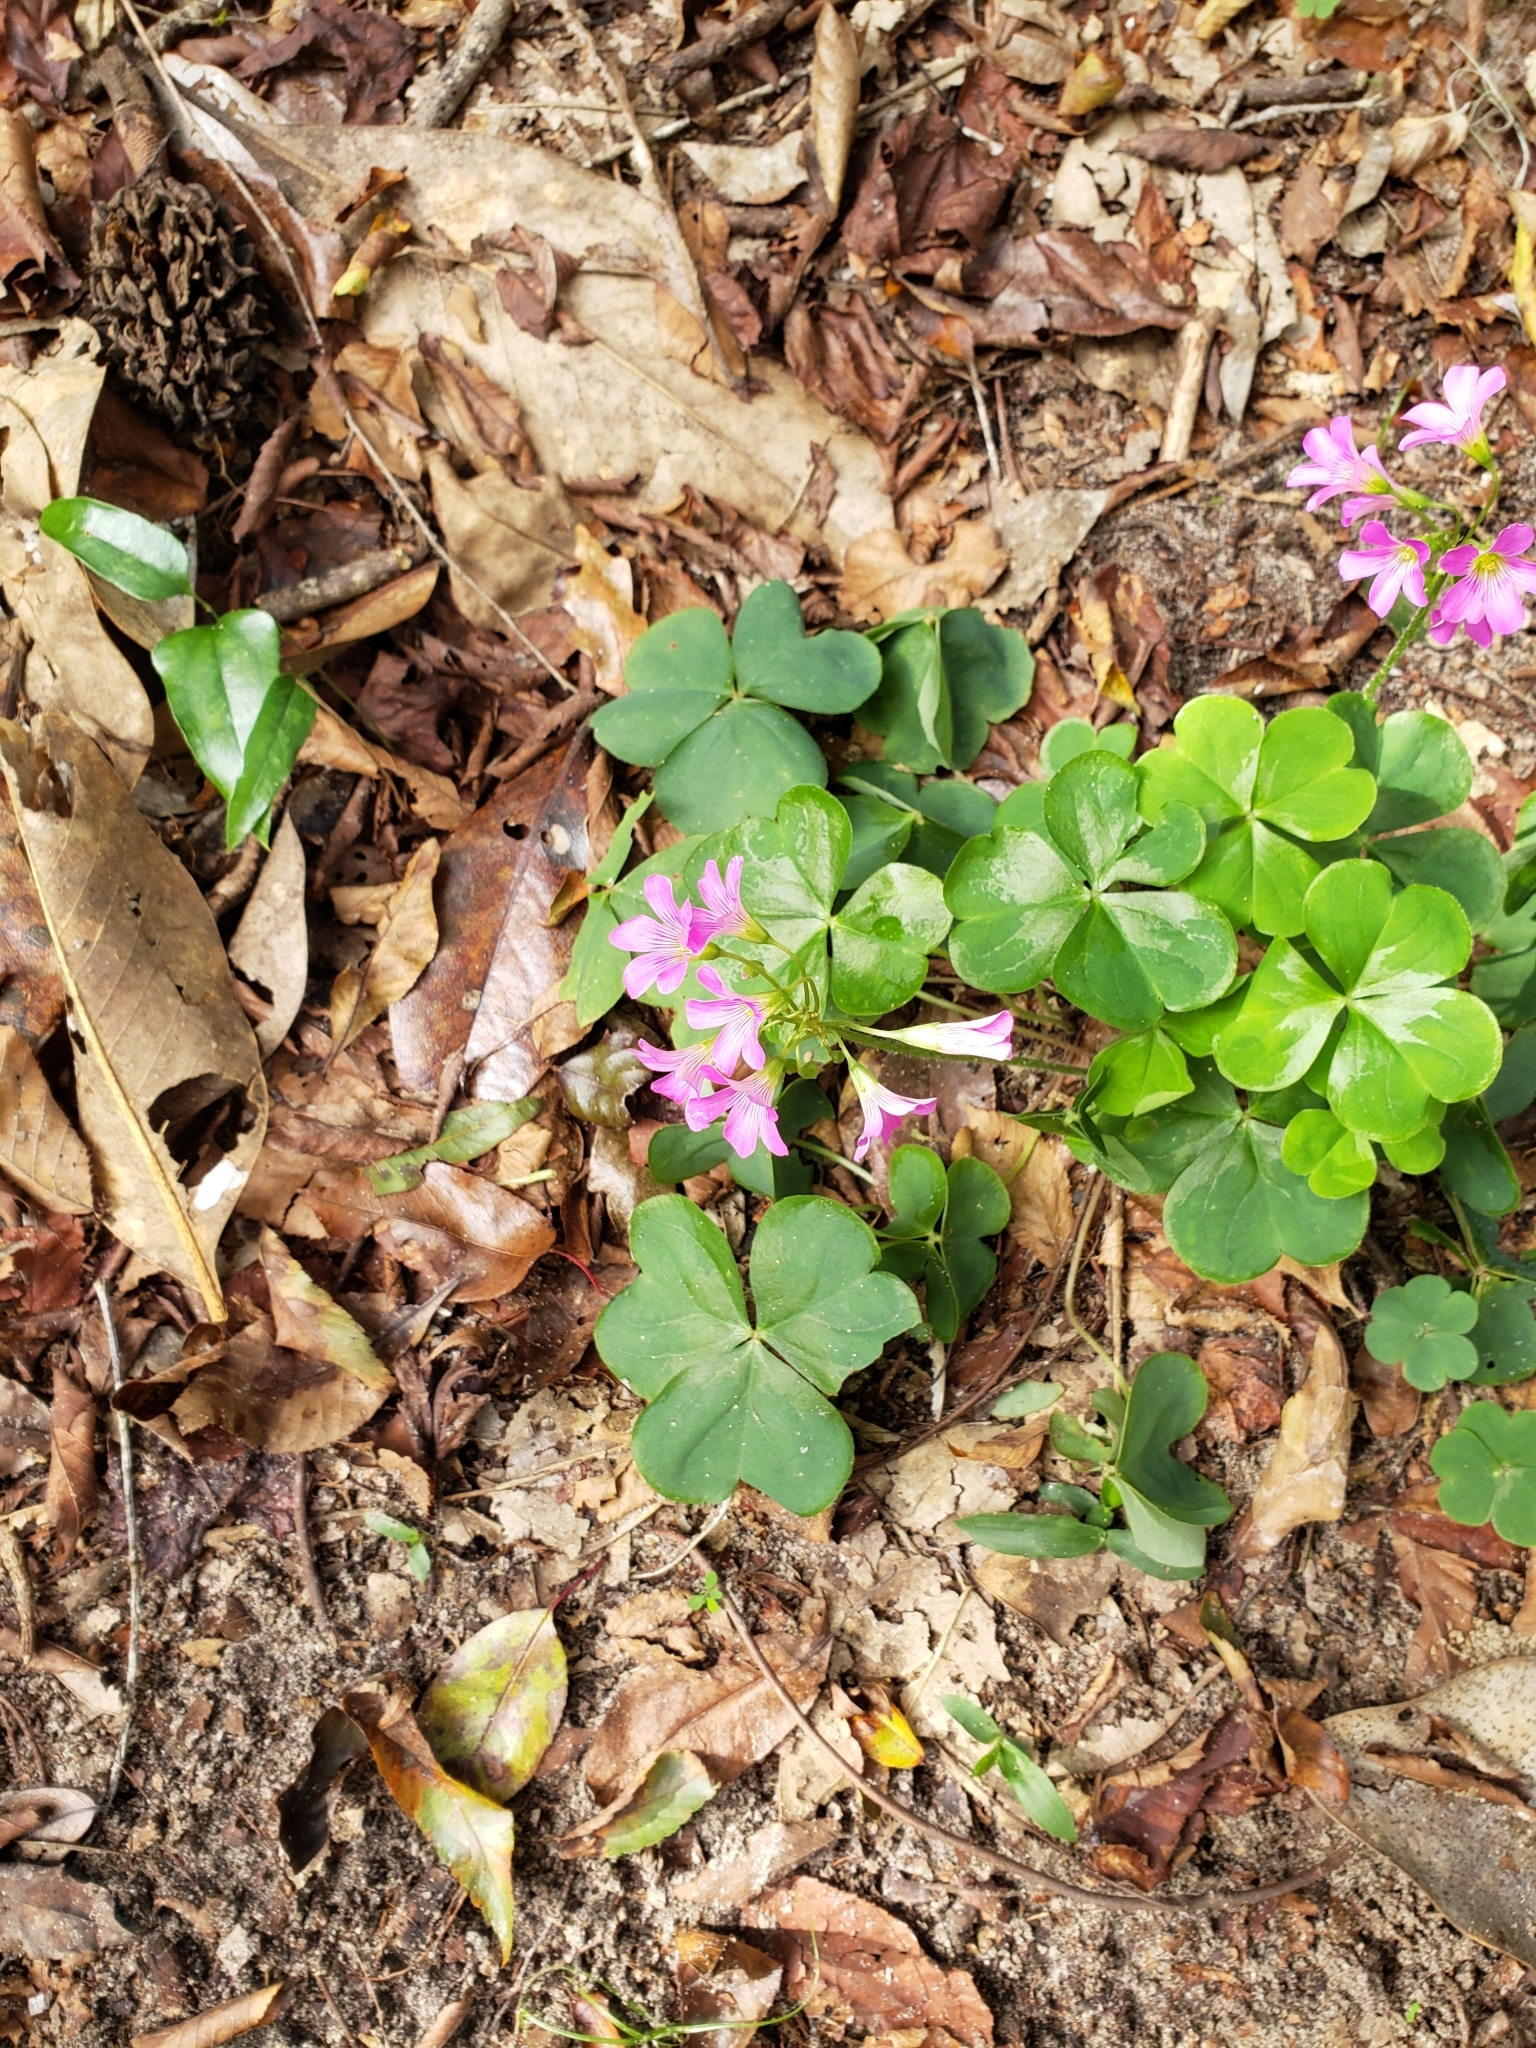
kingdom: Plantae
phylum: Tracheophyta
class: Magnoliopsida
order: Oxalidales
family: Oxalidaceae
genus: Oxalis
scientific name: Oxalis debilis
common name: Large-flowered pink-sorrel
